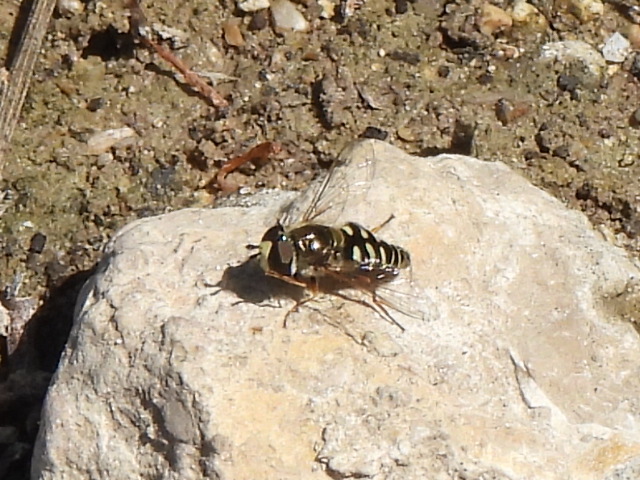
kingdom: Animalia
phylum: Arthropoda
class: Insecta
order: Diptera
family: Syrphidae
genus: Eupeodes
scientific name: Eupeodes volucris
